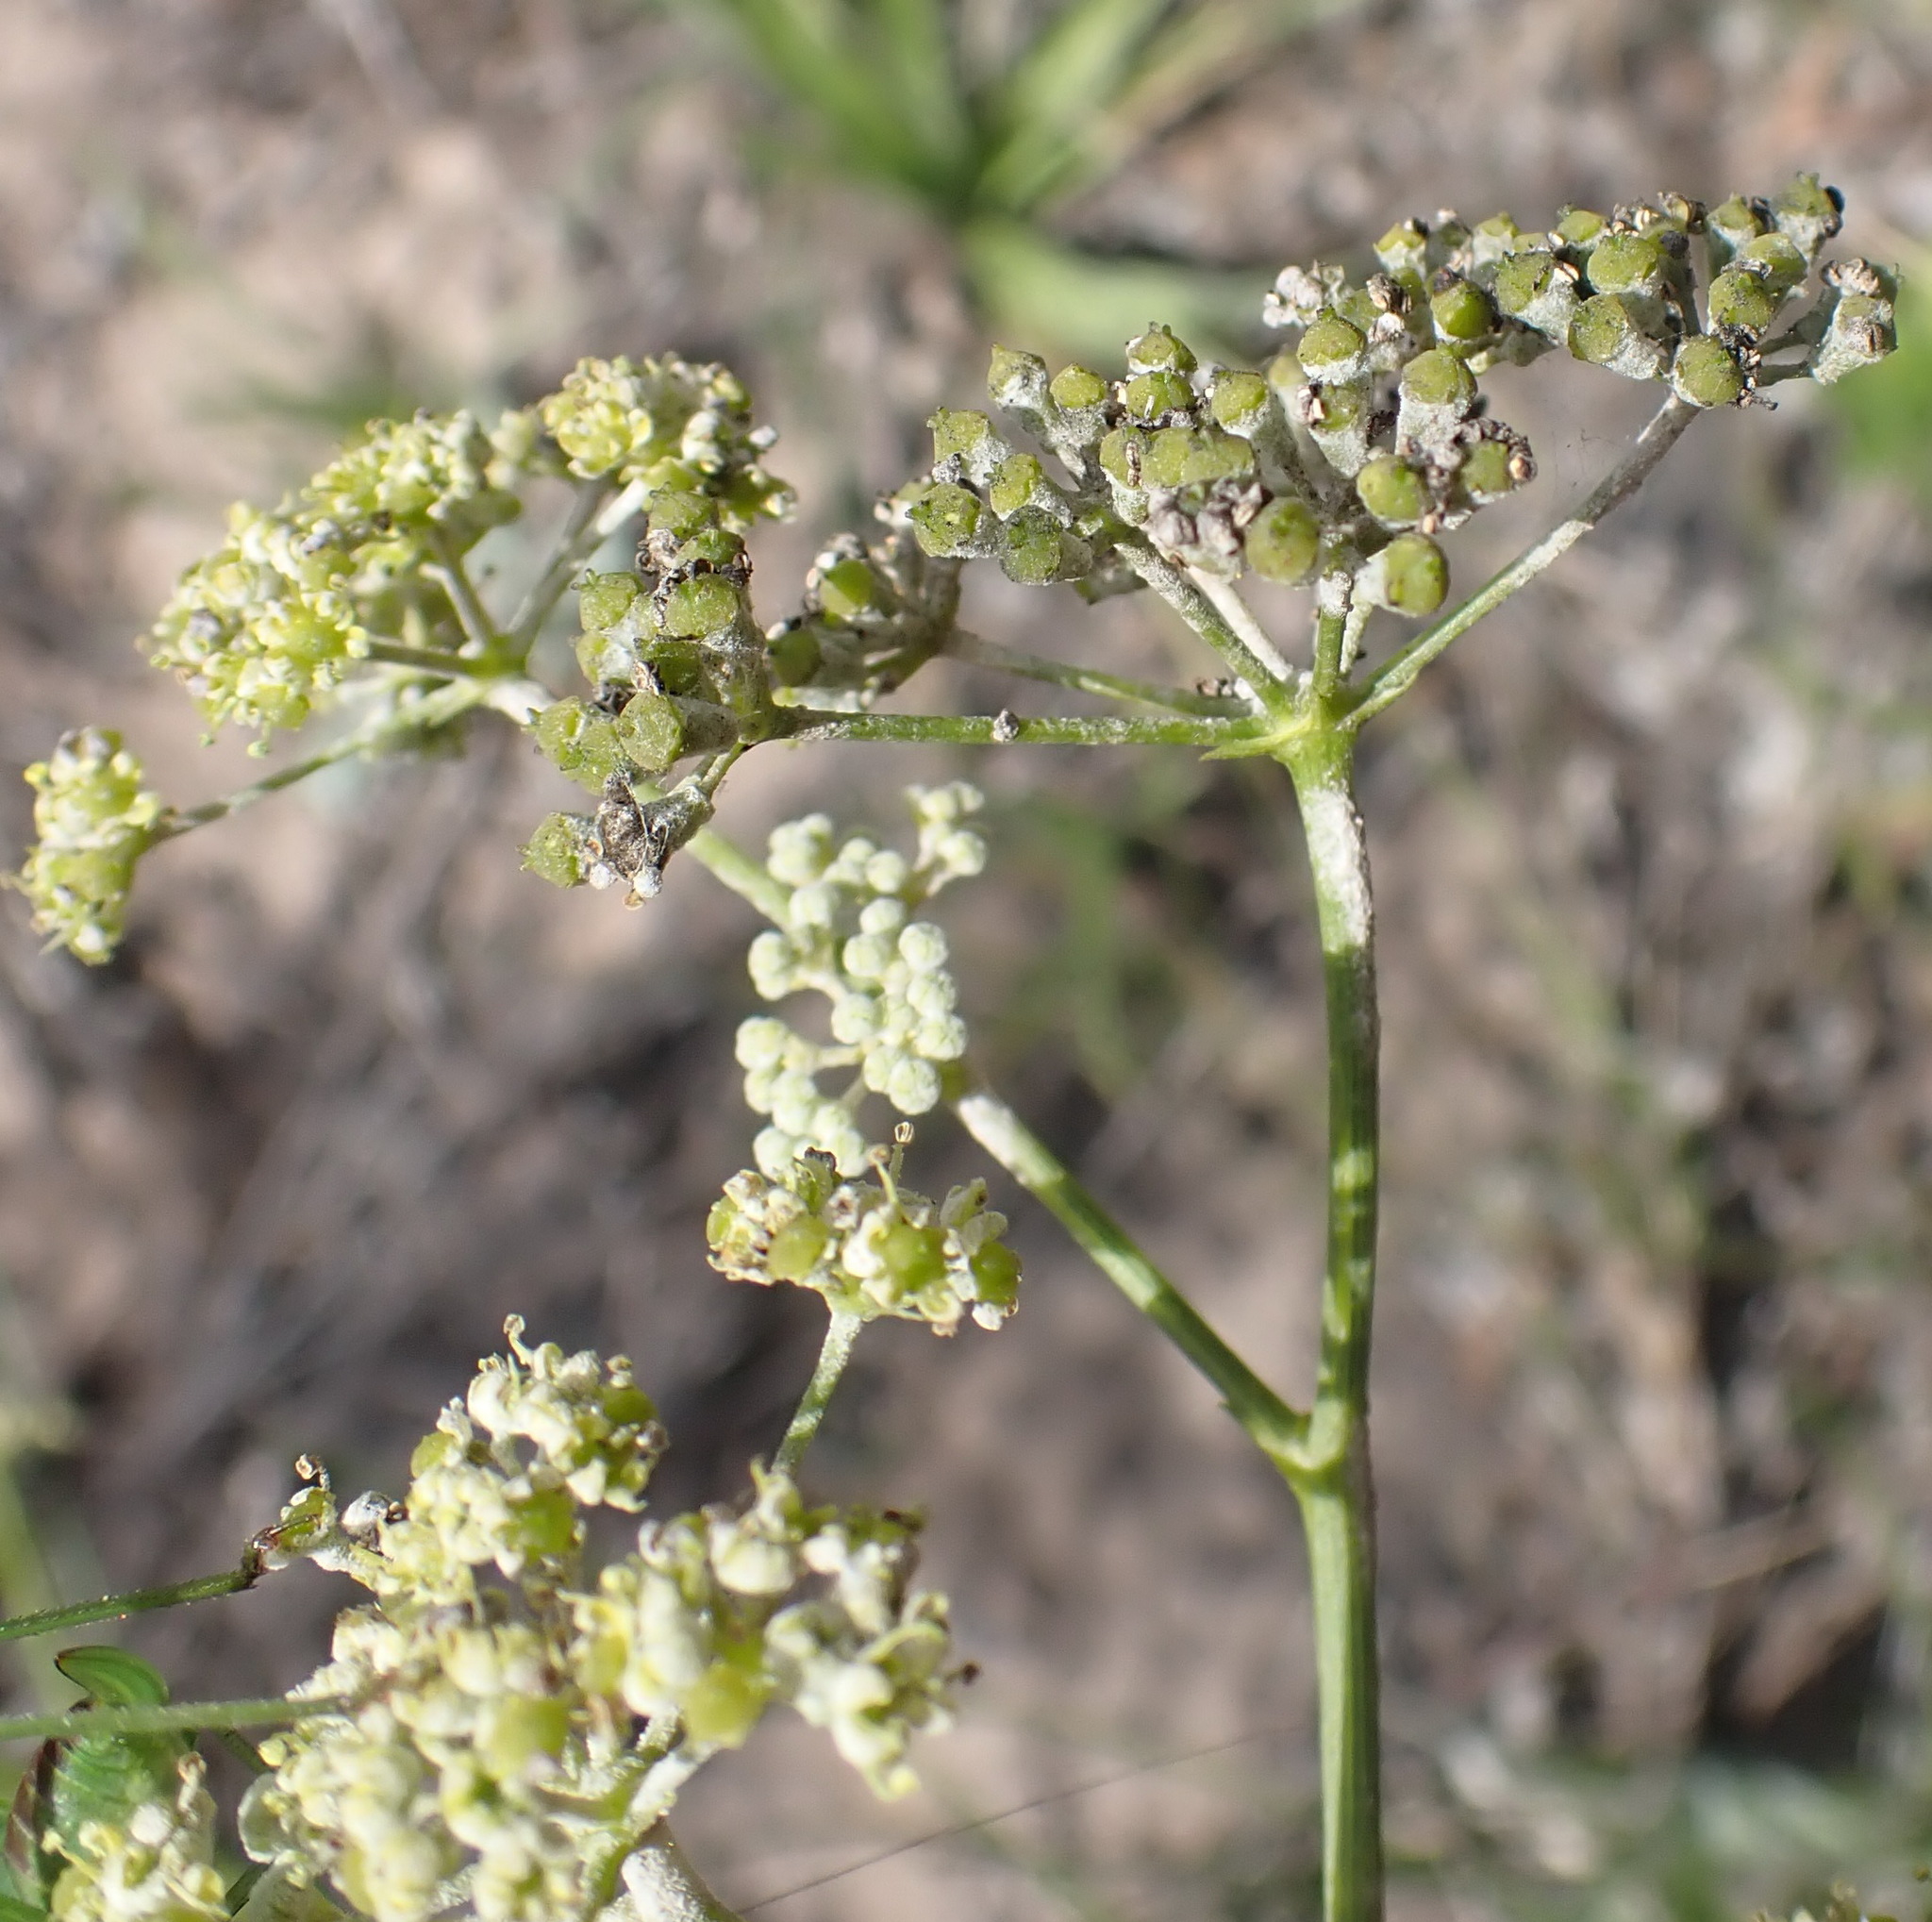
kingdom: Plantae
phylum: Tracheophyta
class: Magnoliopsida
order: Apiales
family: Apiaceae
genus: Anginon
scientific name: Anginon difforme
